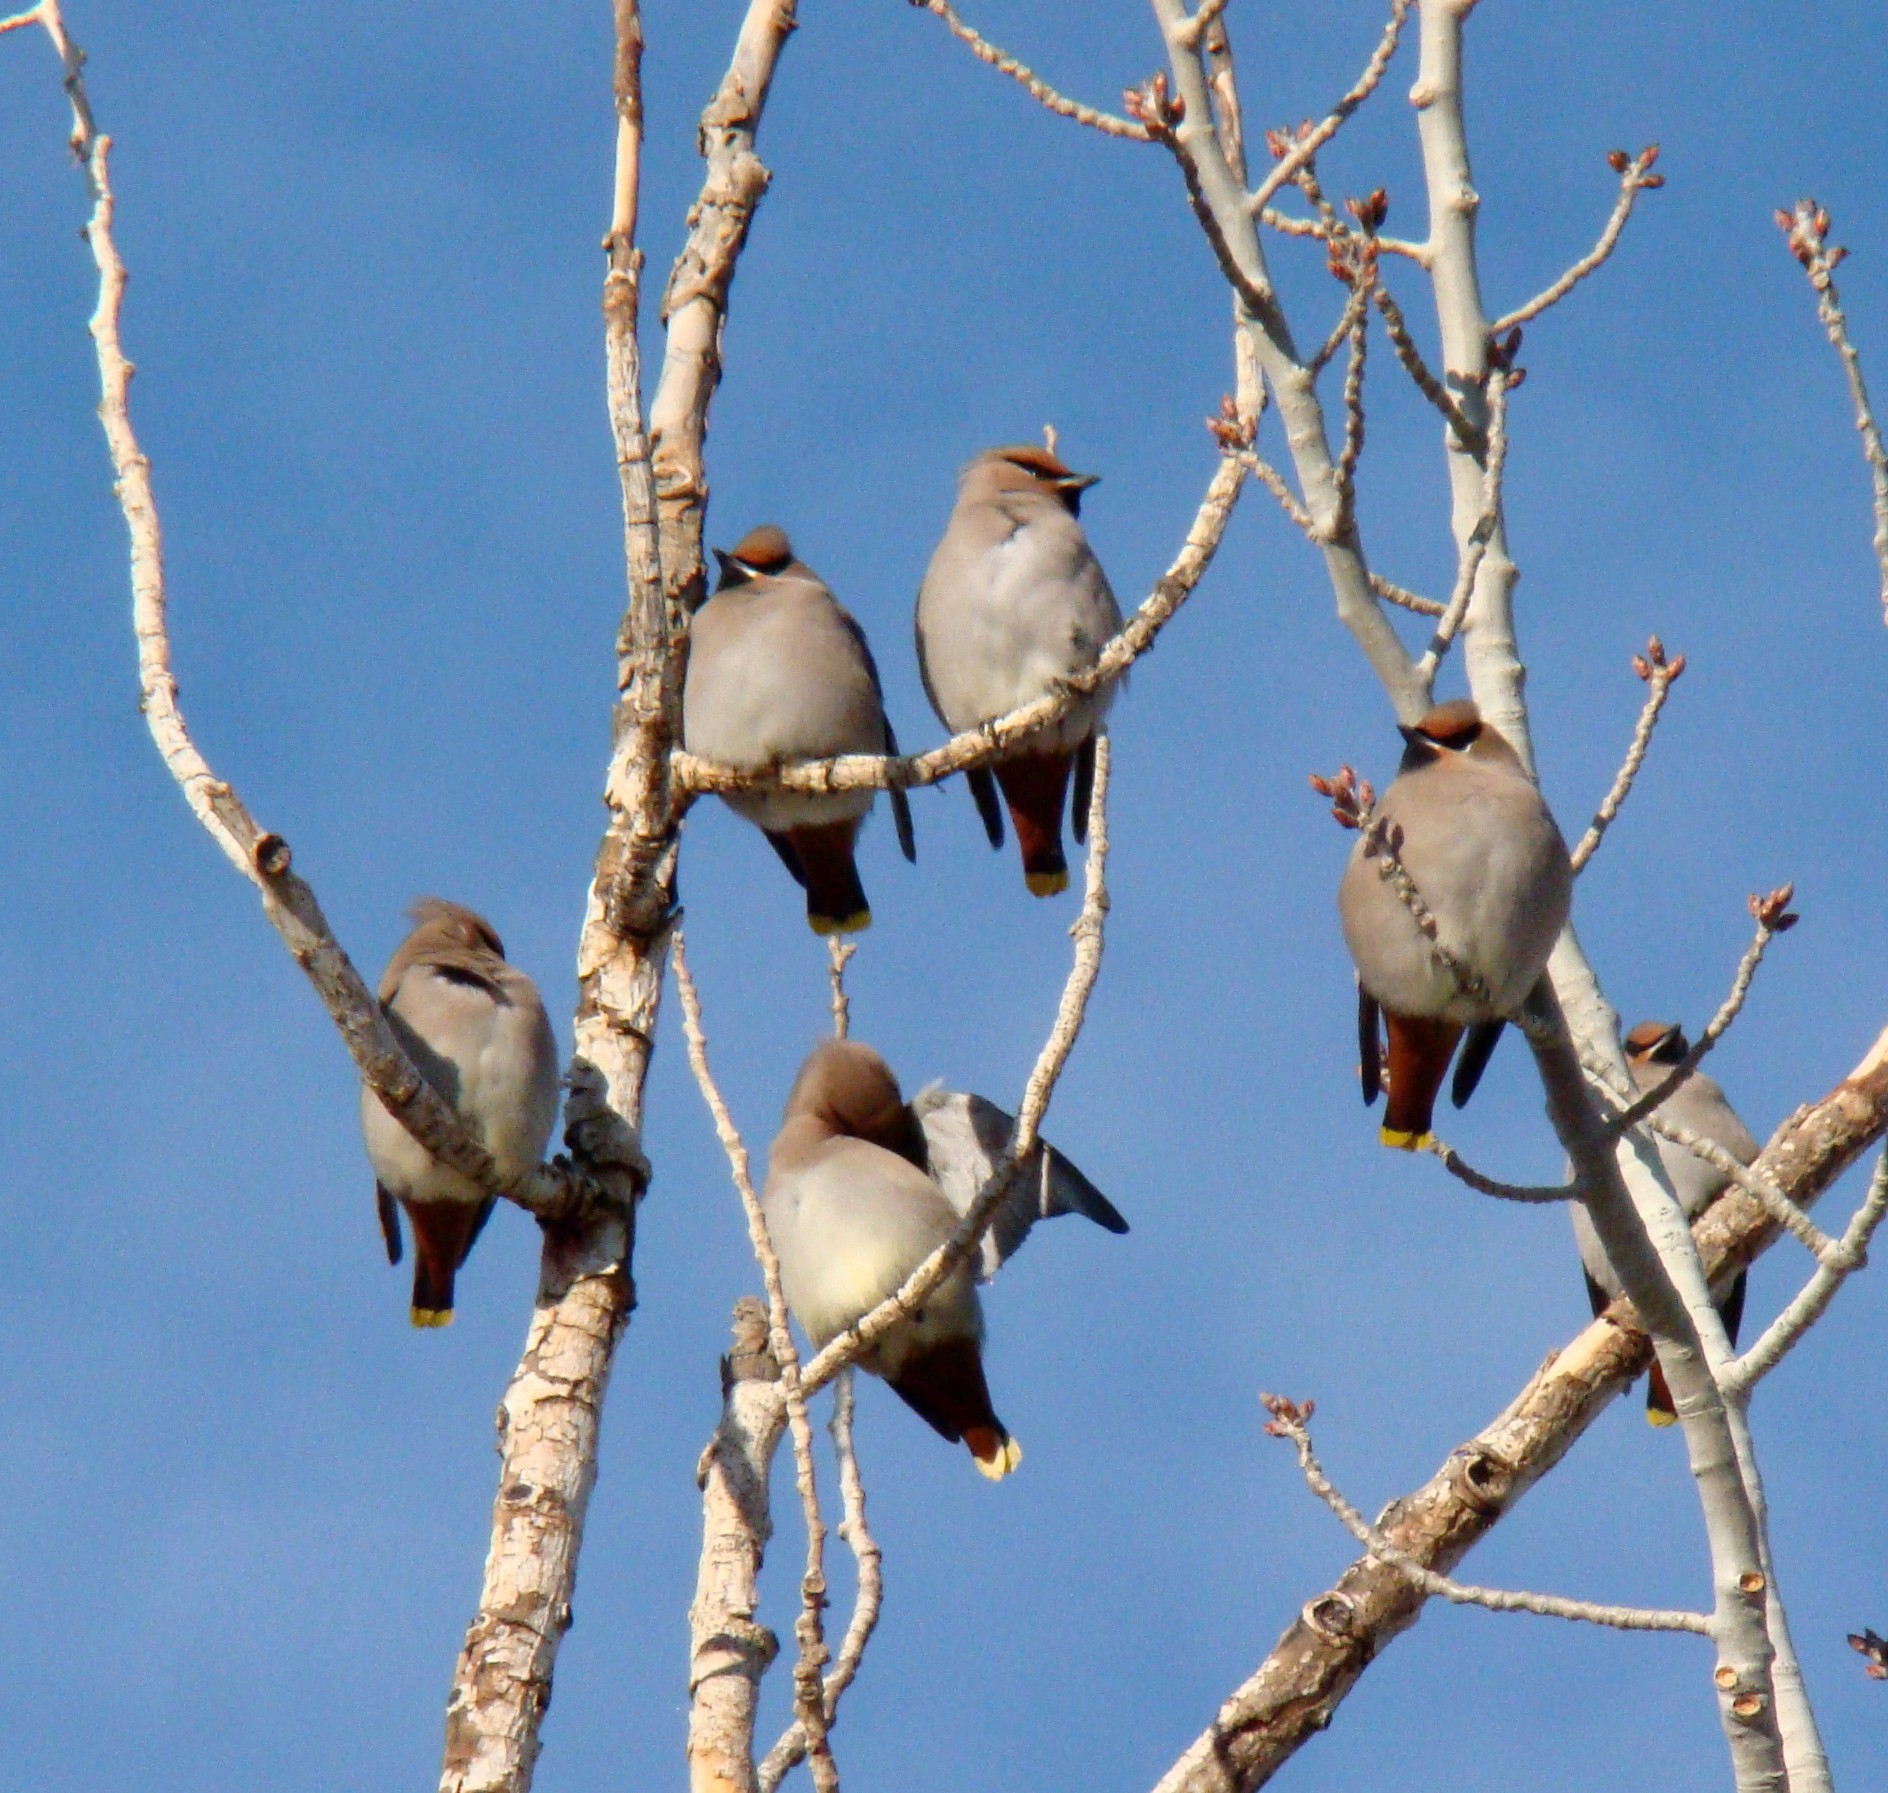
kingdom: Animalia
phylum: Chordata
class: Aves
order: Passeriformes
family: Bombycillidae
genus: Bombycilla
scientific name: Bombycilla garrulus
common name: Bohemian waxwing
